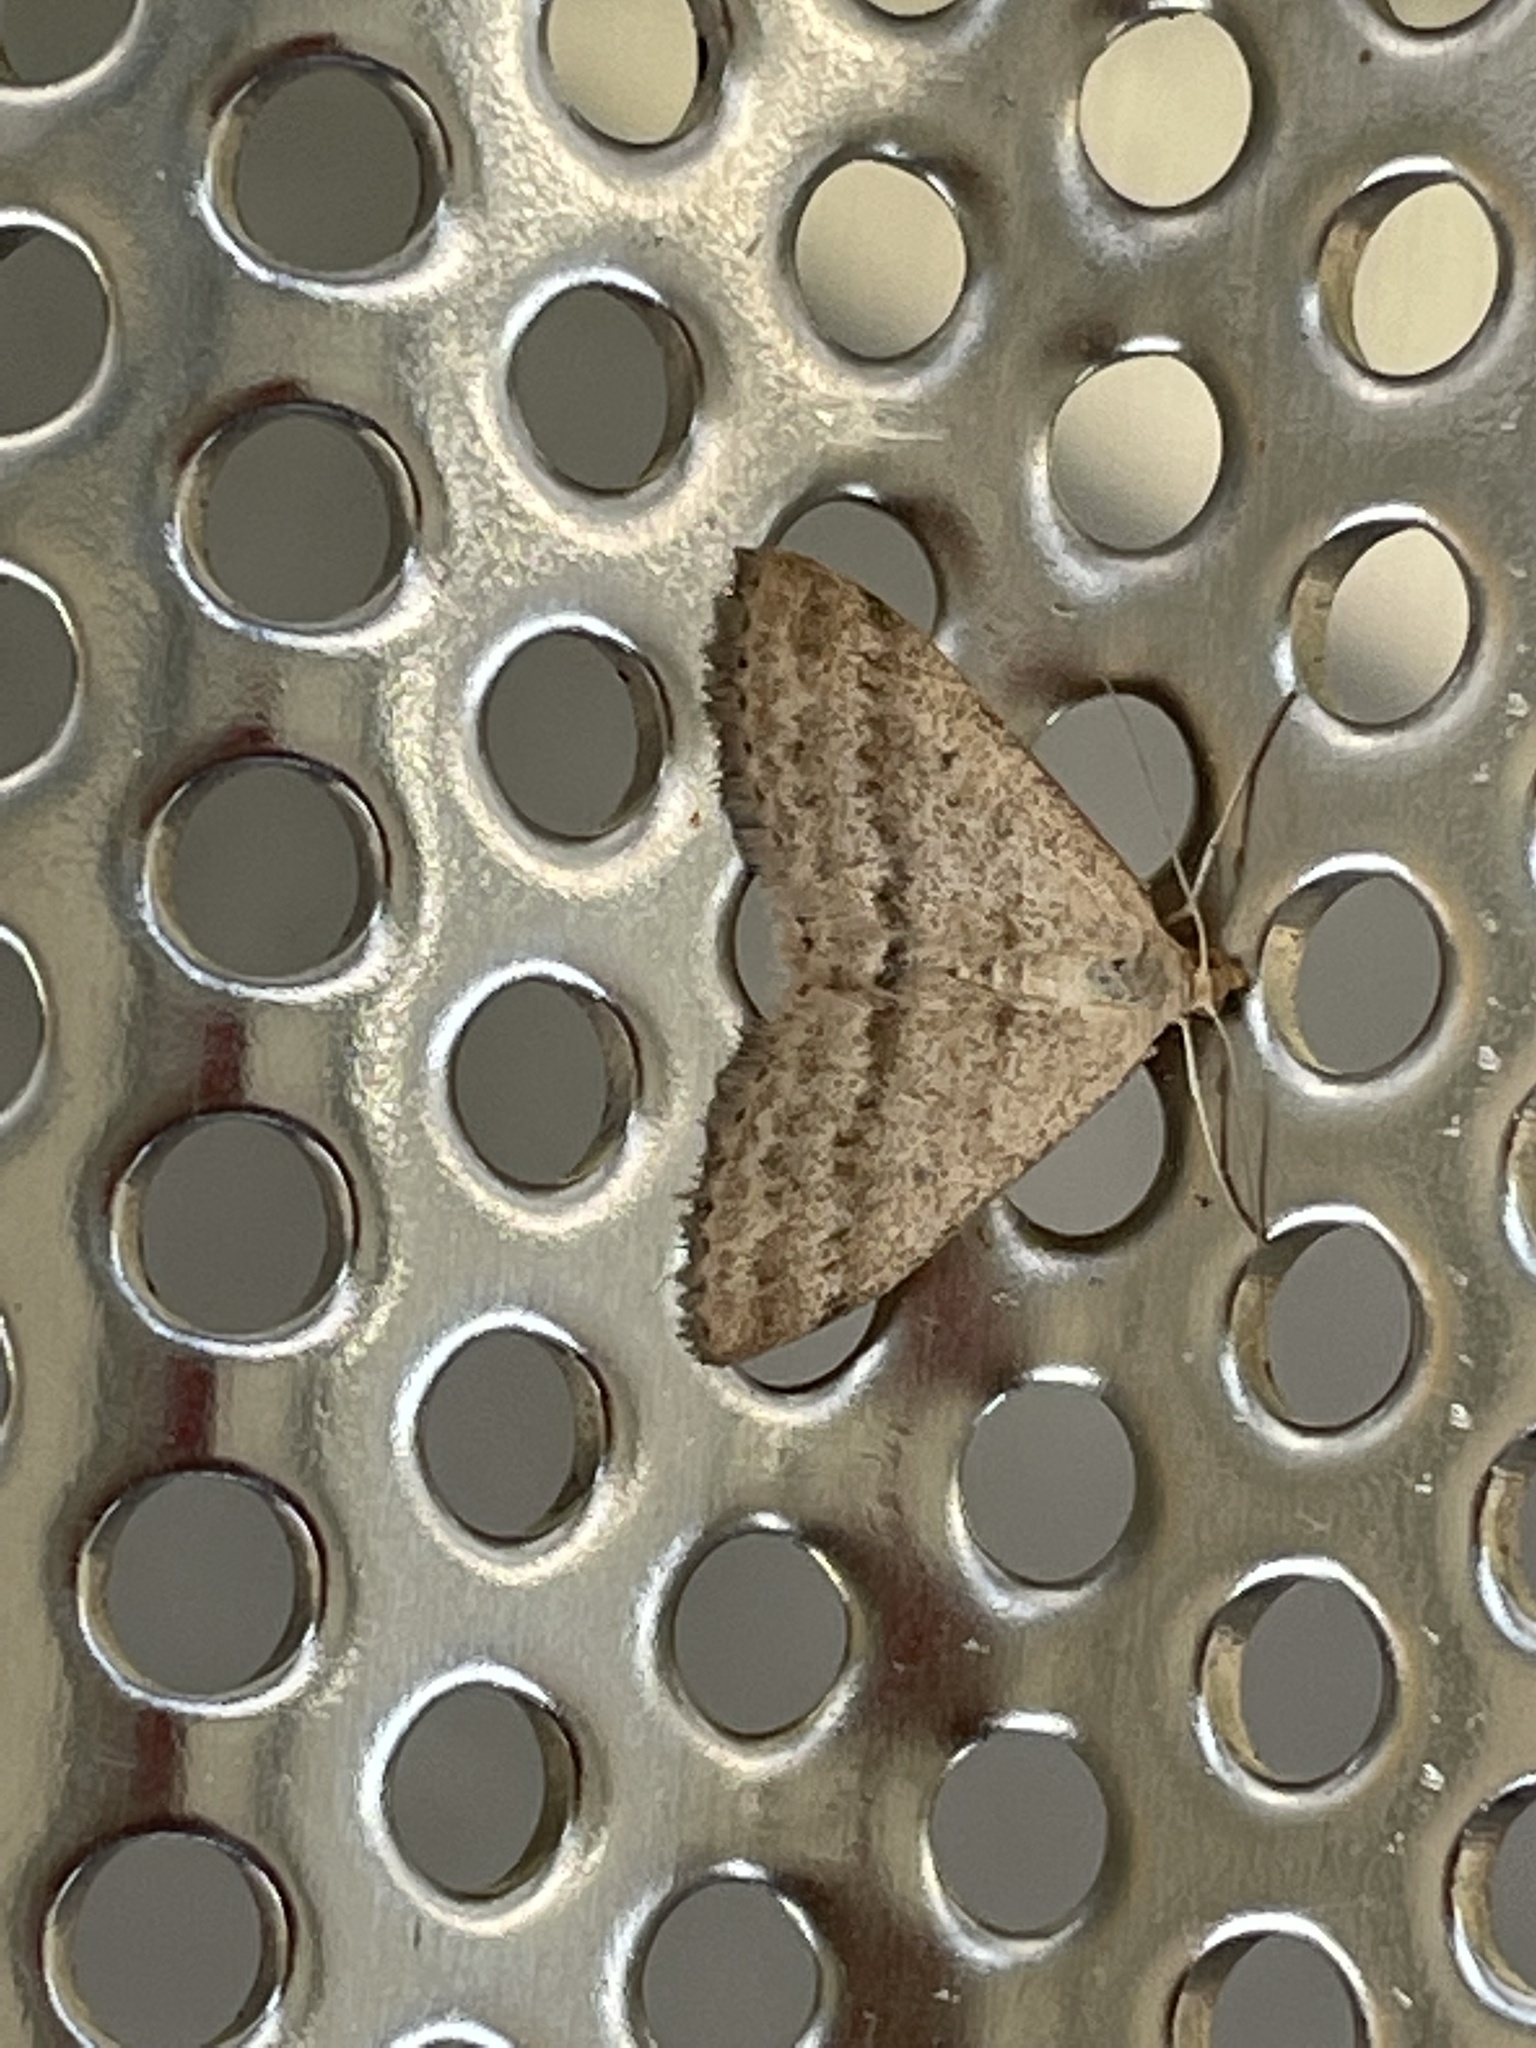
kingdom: Animalia
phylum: Arthropoda
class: Insecta
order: Lepidoptera
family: Geometridae
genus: Scopula
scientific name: Scopula lydia
